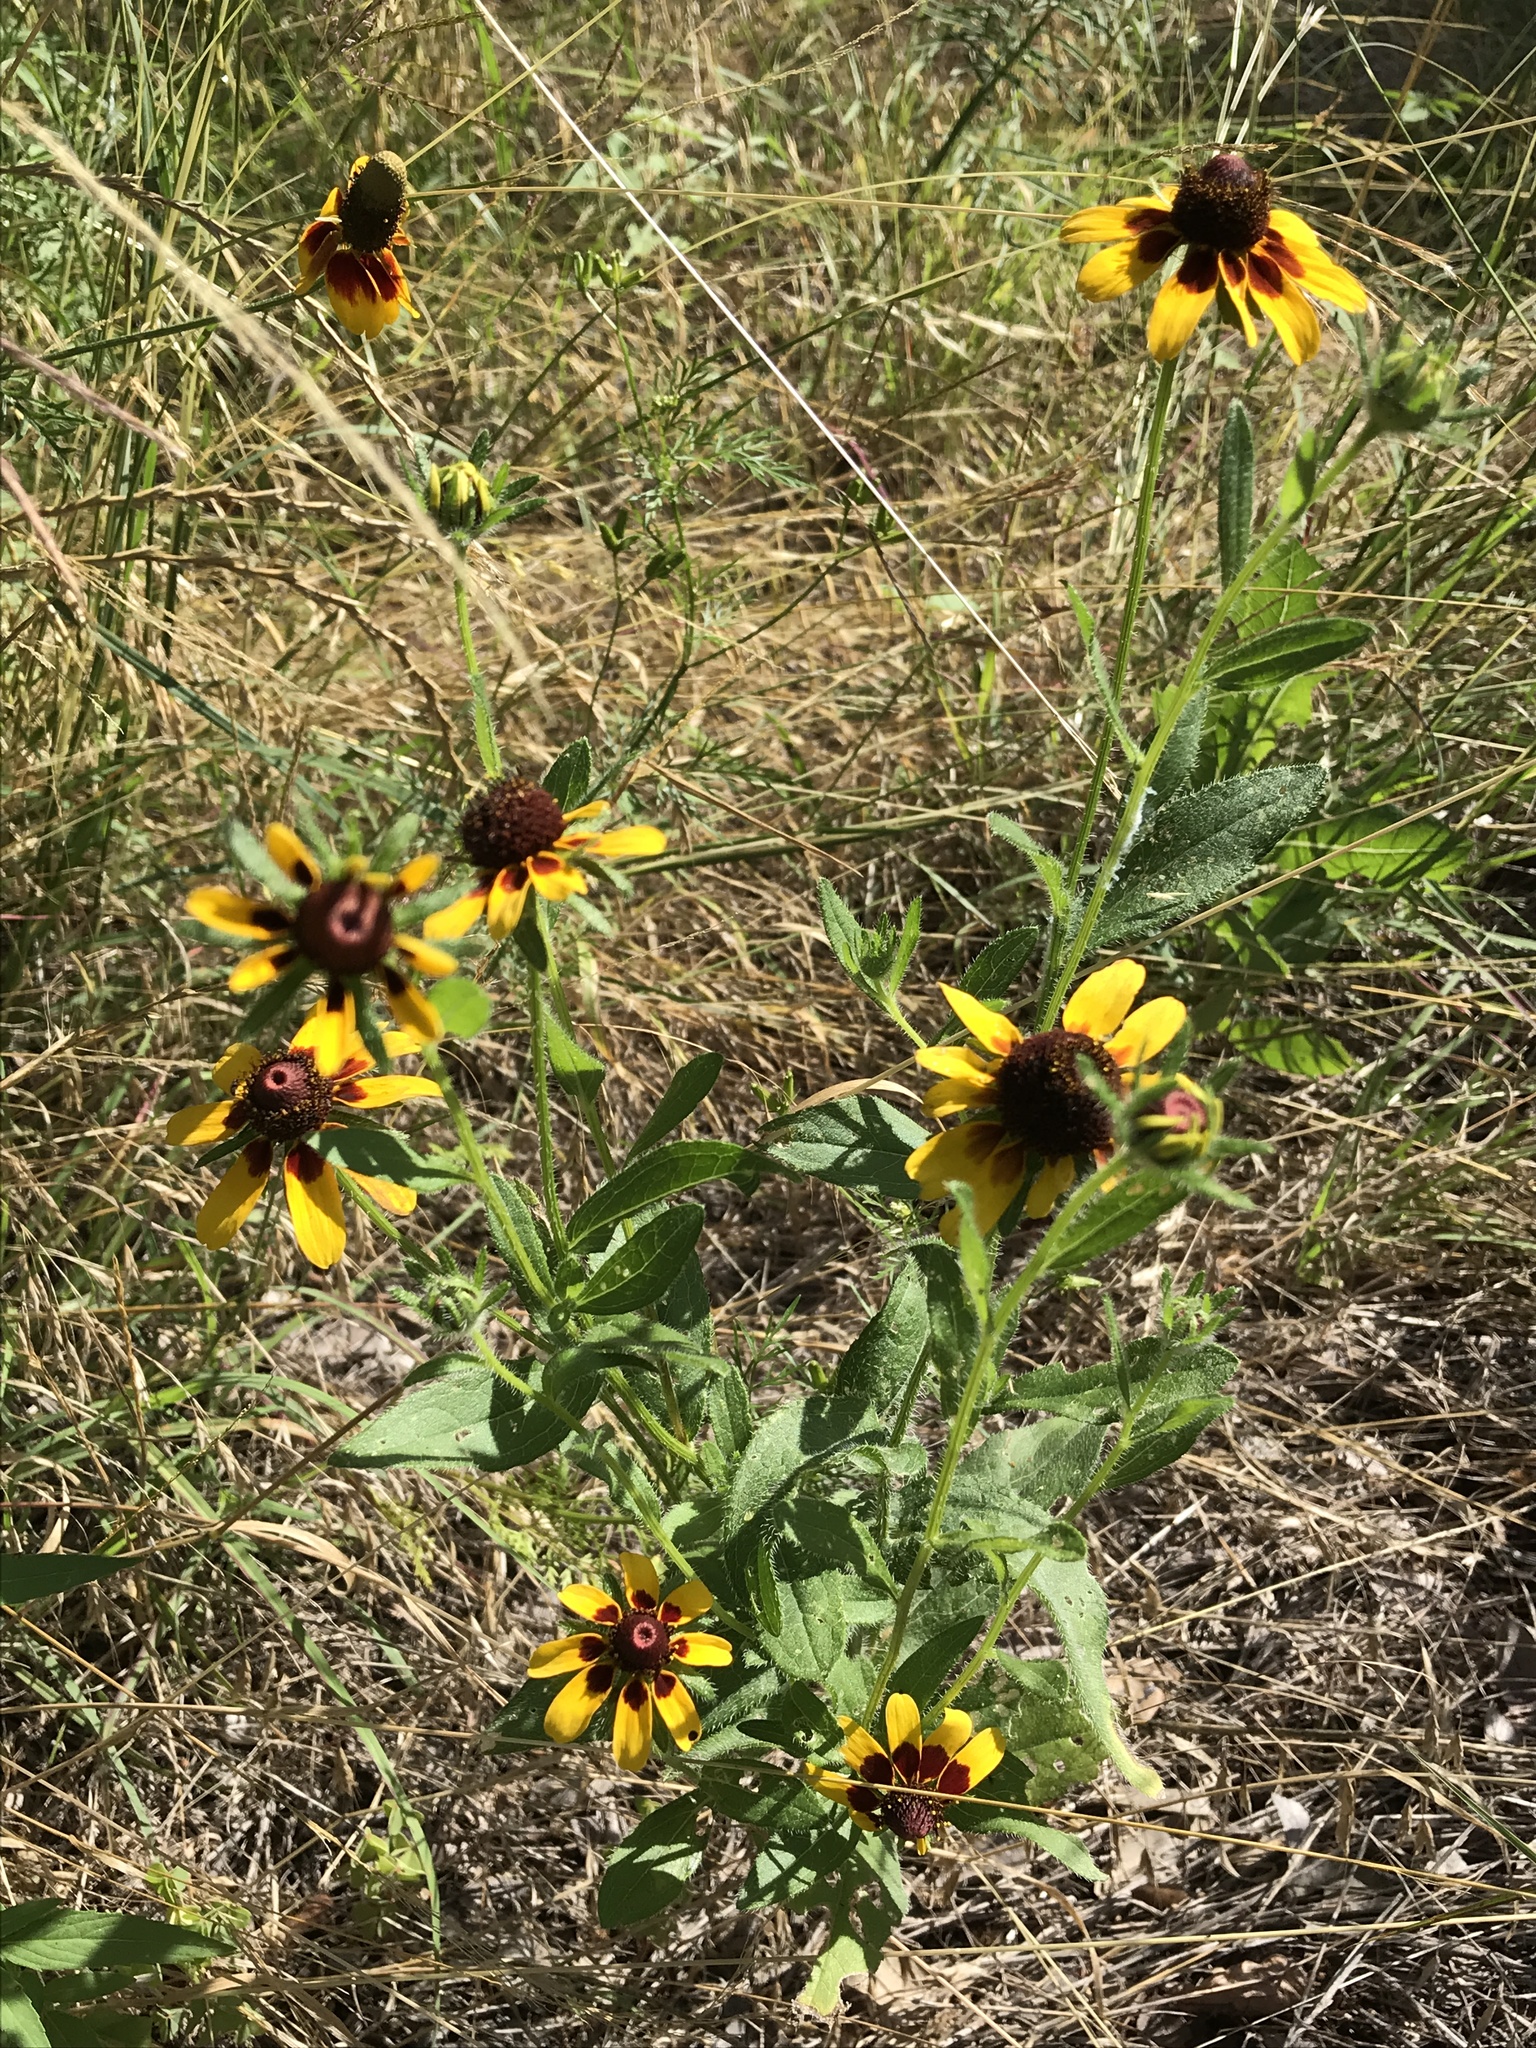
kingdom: Plantae
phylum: Tracheophyta
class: Magnoliopsida
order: Asterales
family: Asteraceae
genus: Rudbeckia
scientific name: Rudbeckia hirta
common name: Black-eyed-susan
